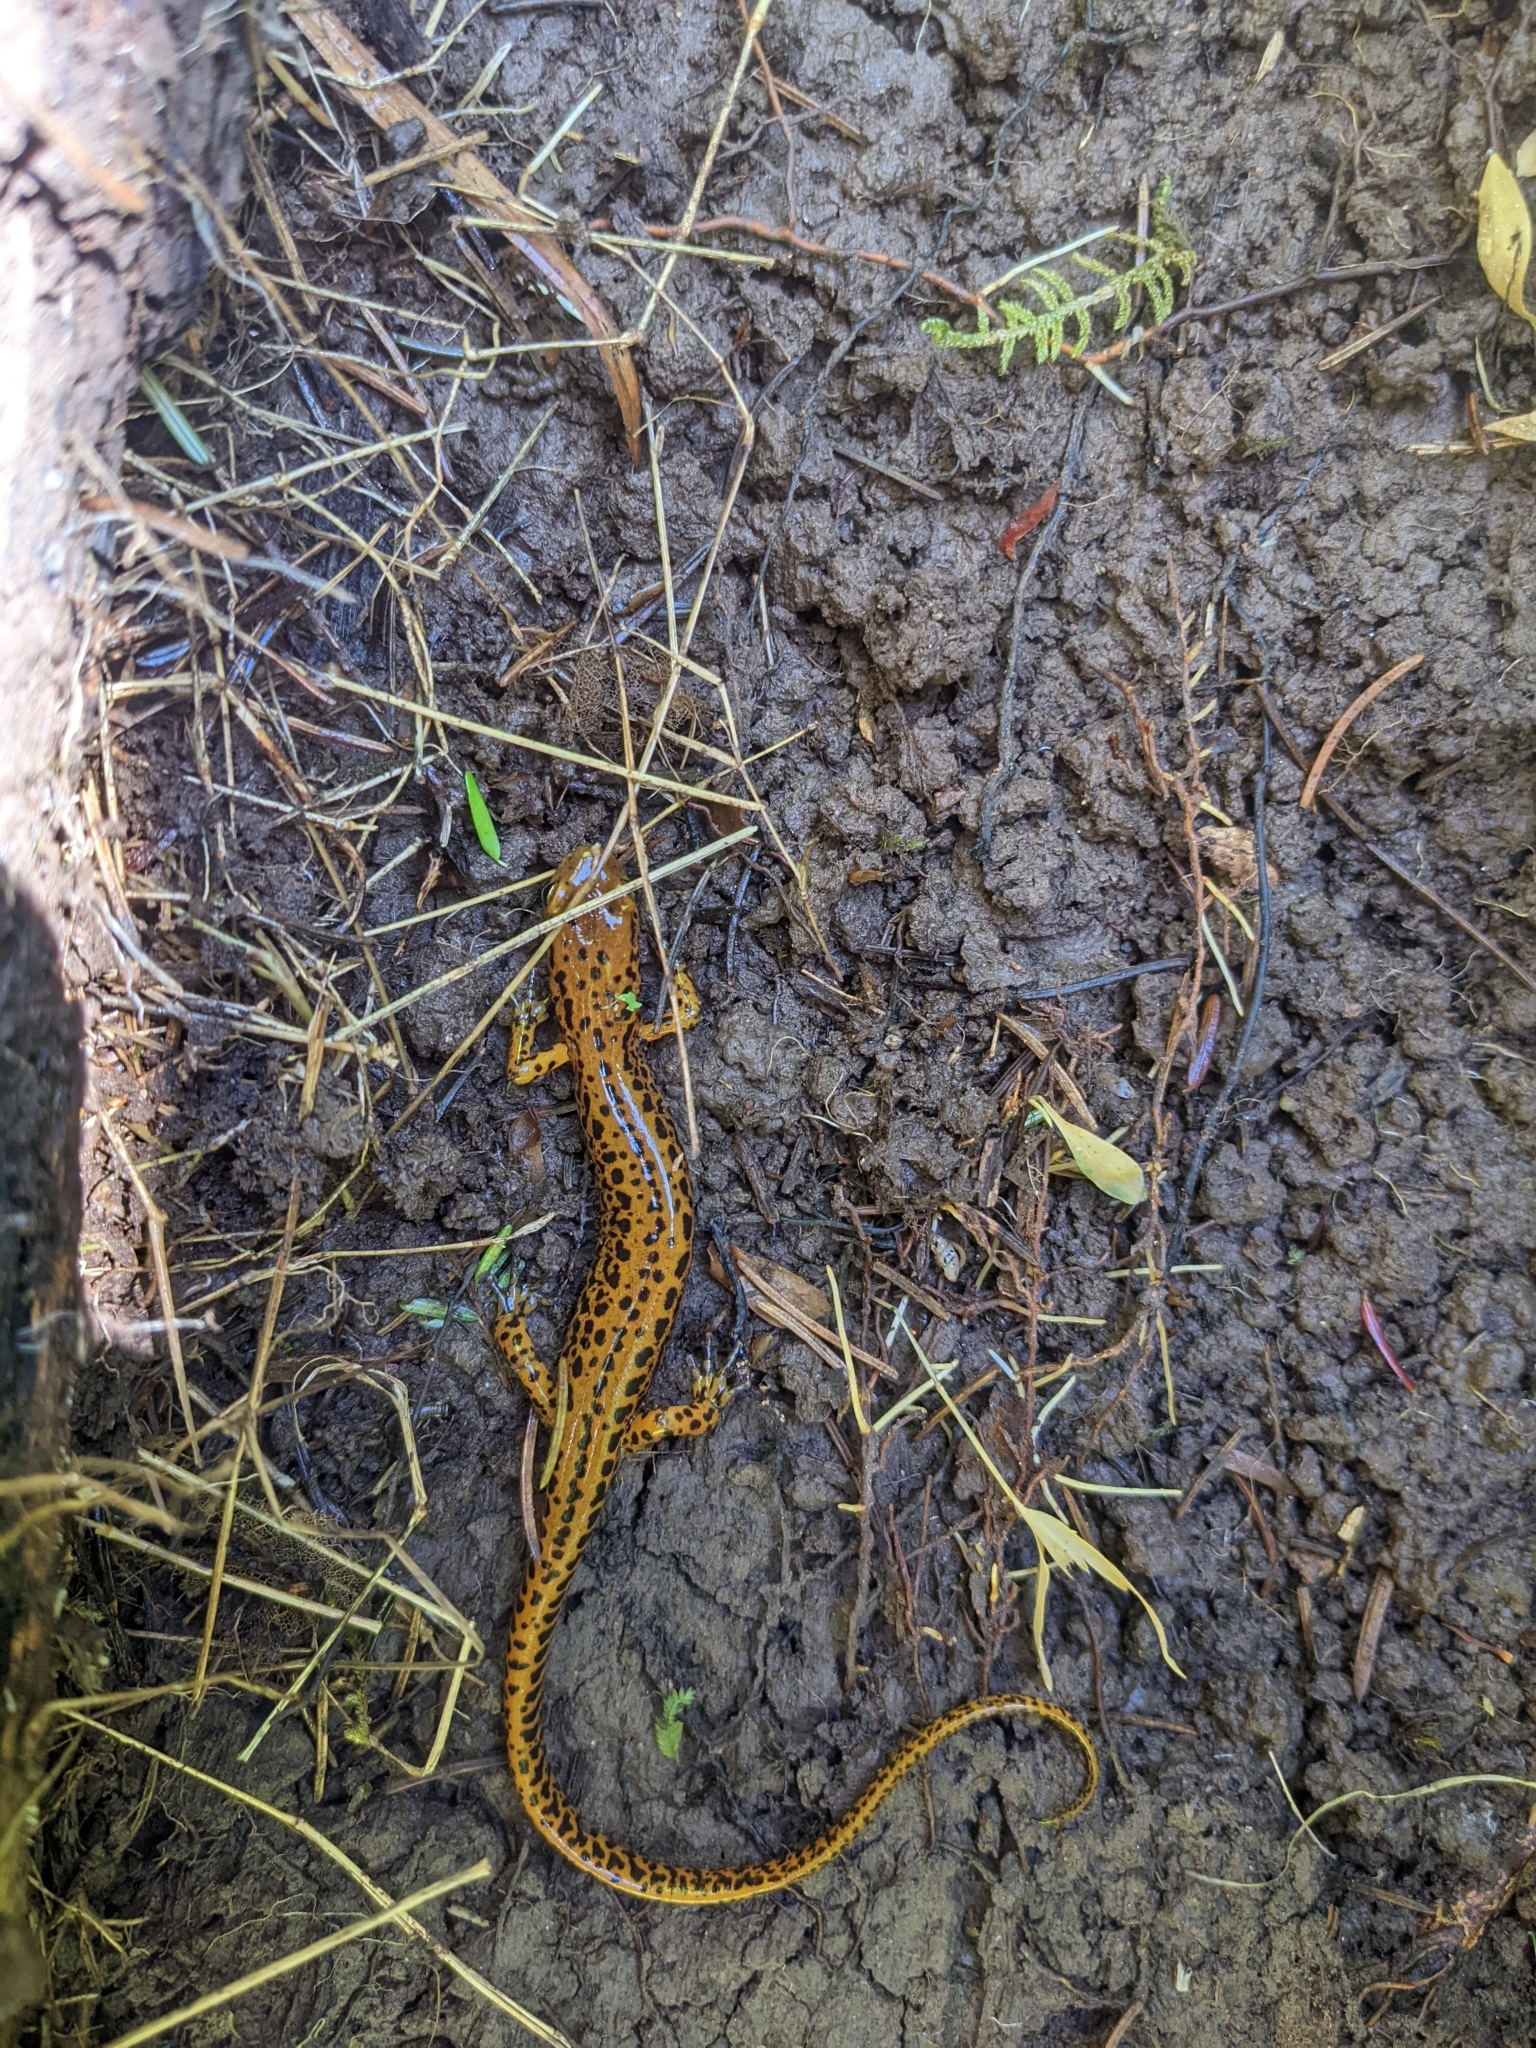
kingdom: Animalia
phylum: Chordata
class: Amphibia
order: Caudata
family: Plethodontidae
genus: Eurycea
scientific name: Eurycea longicauda
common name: Long-tailed salamander
